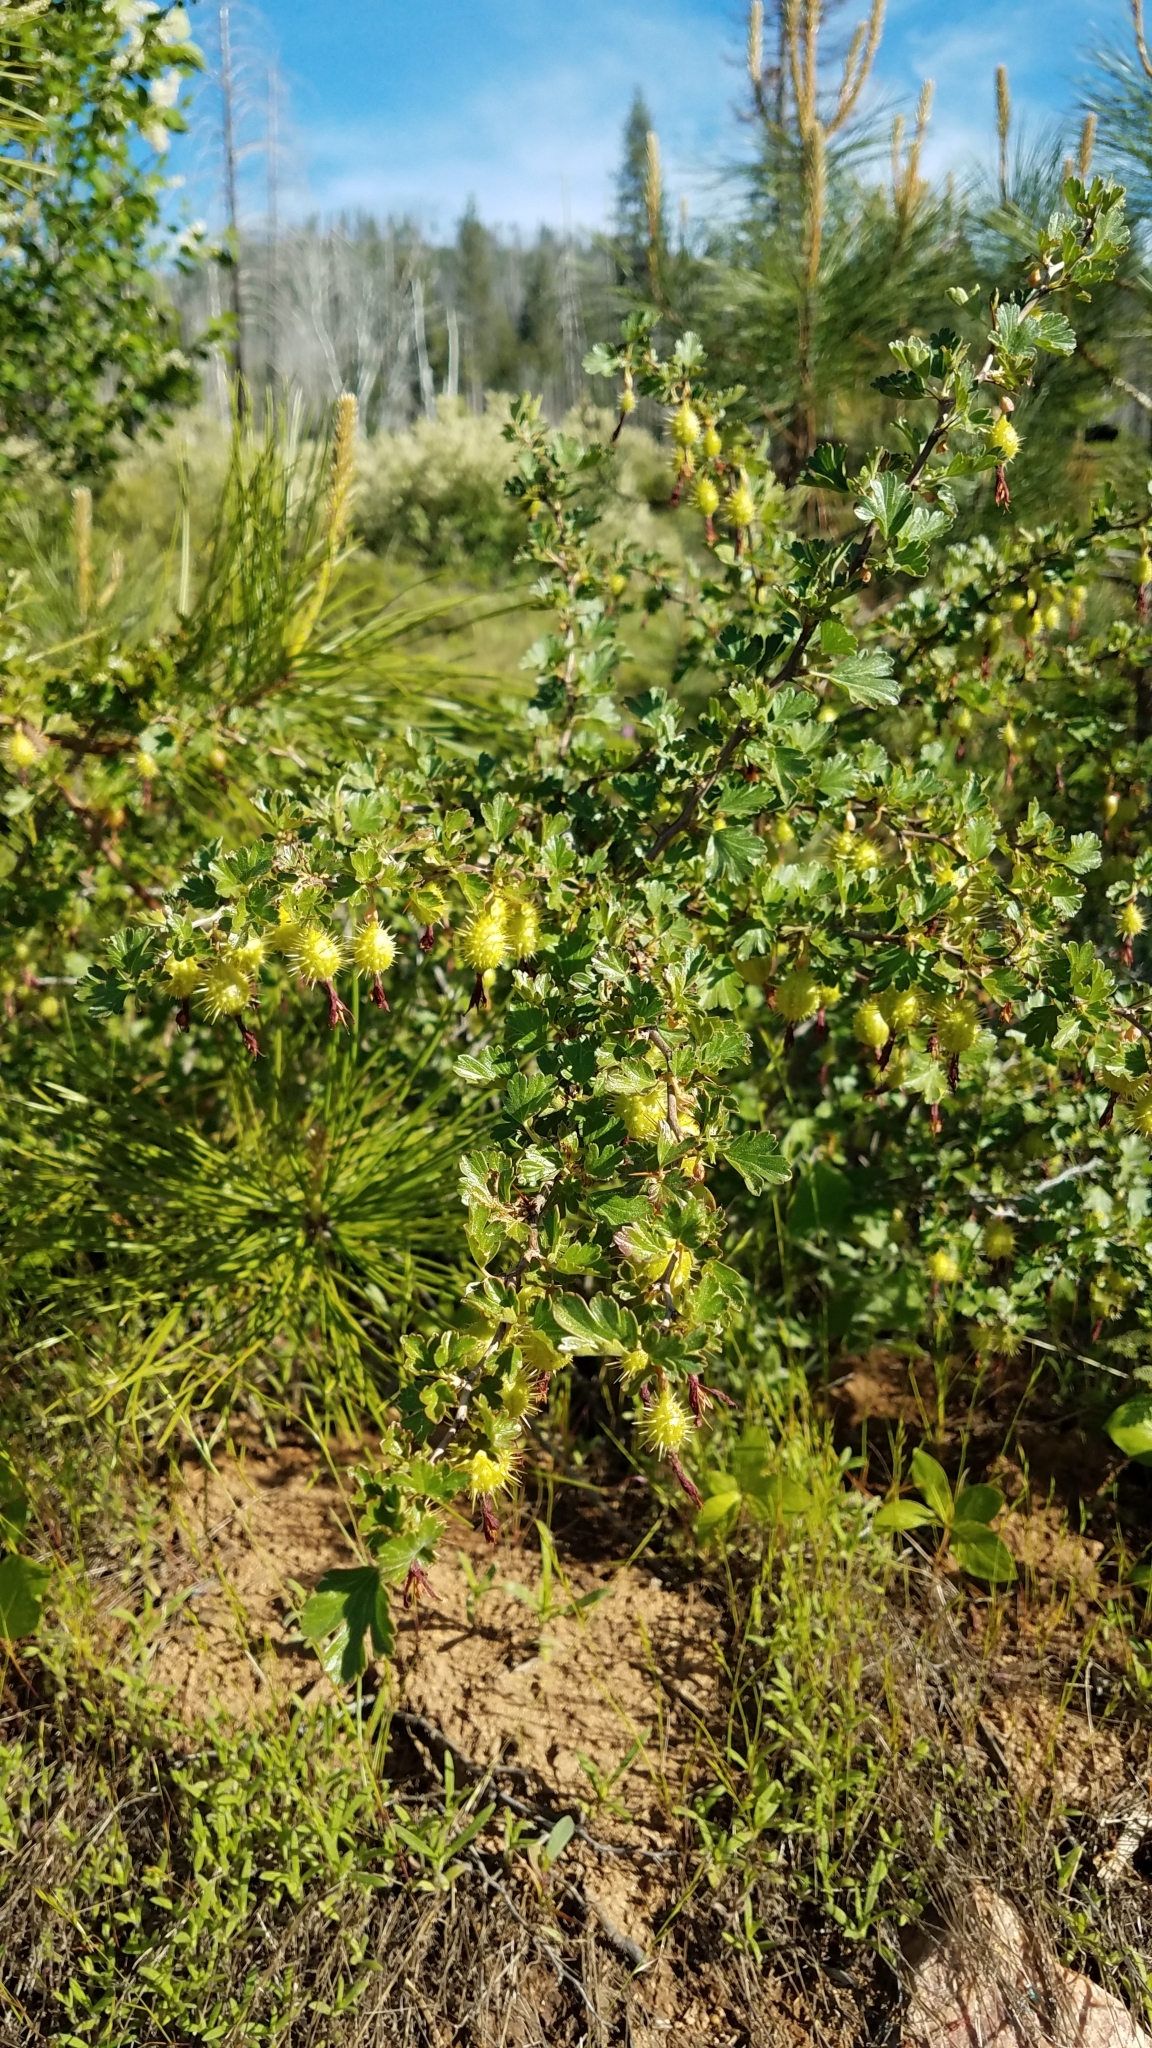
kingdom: Plantae
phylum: Tracheophyta
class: Magnoliopsida
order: Saxifragales
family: Grossulariaceae
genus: Ribes
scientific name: Ribes roezlii
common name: Sierra gooseberry
